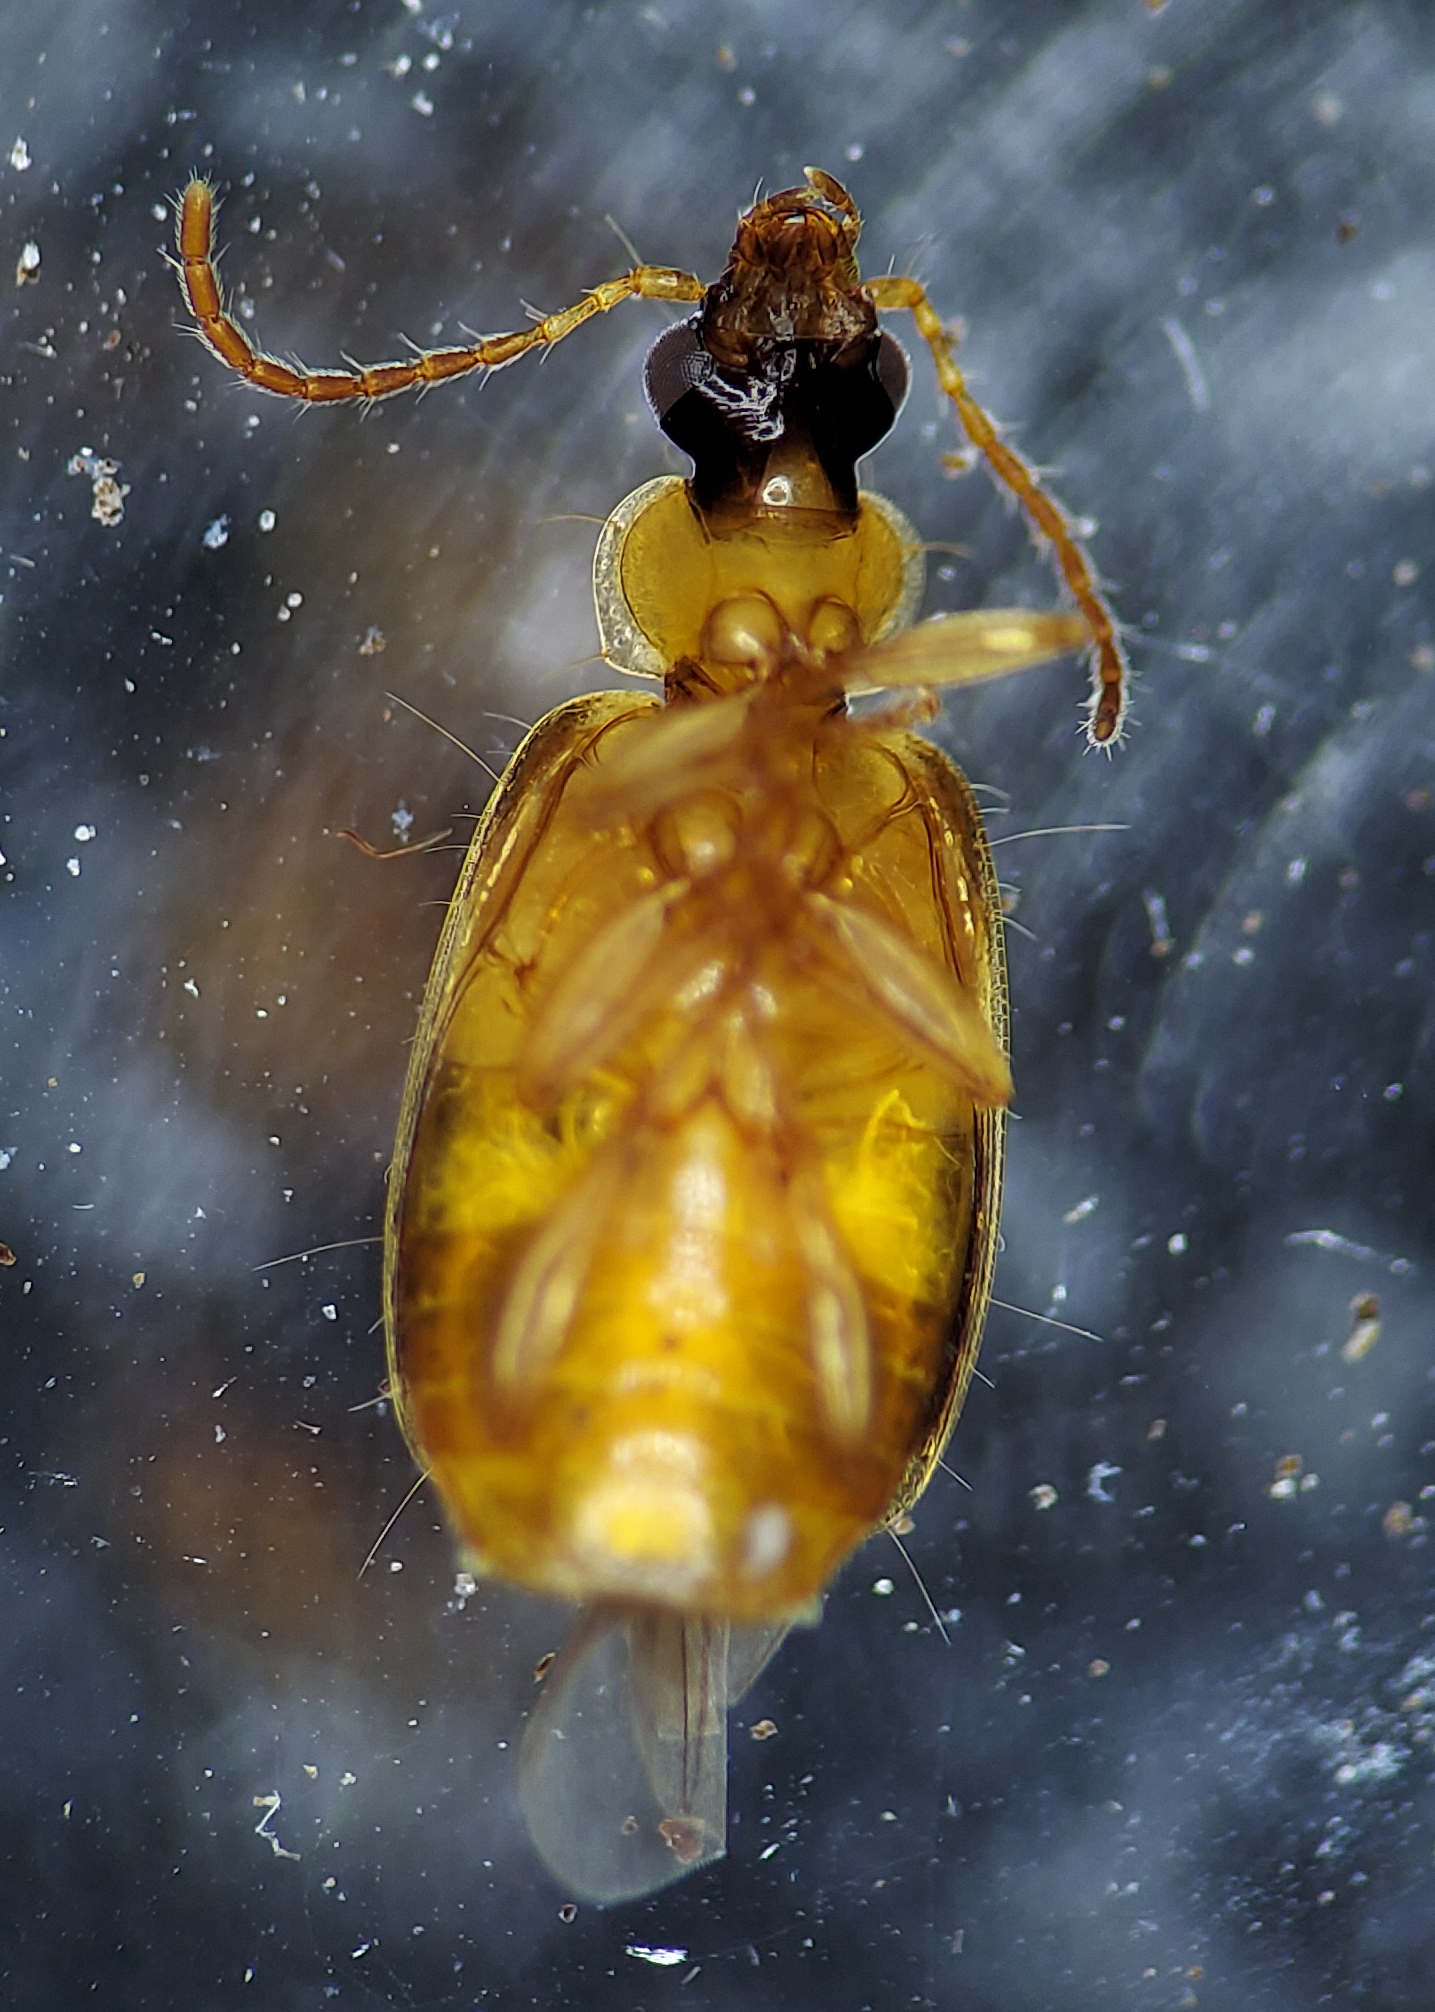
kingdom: Animalia
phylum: Arthropoda
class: Insecta
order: Coleoptera
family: Carabidae
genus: Lebia
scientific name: Lebia analis
